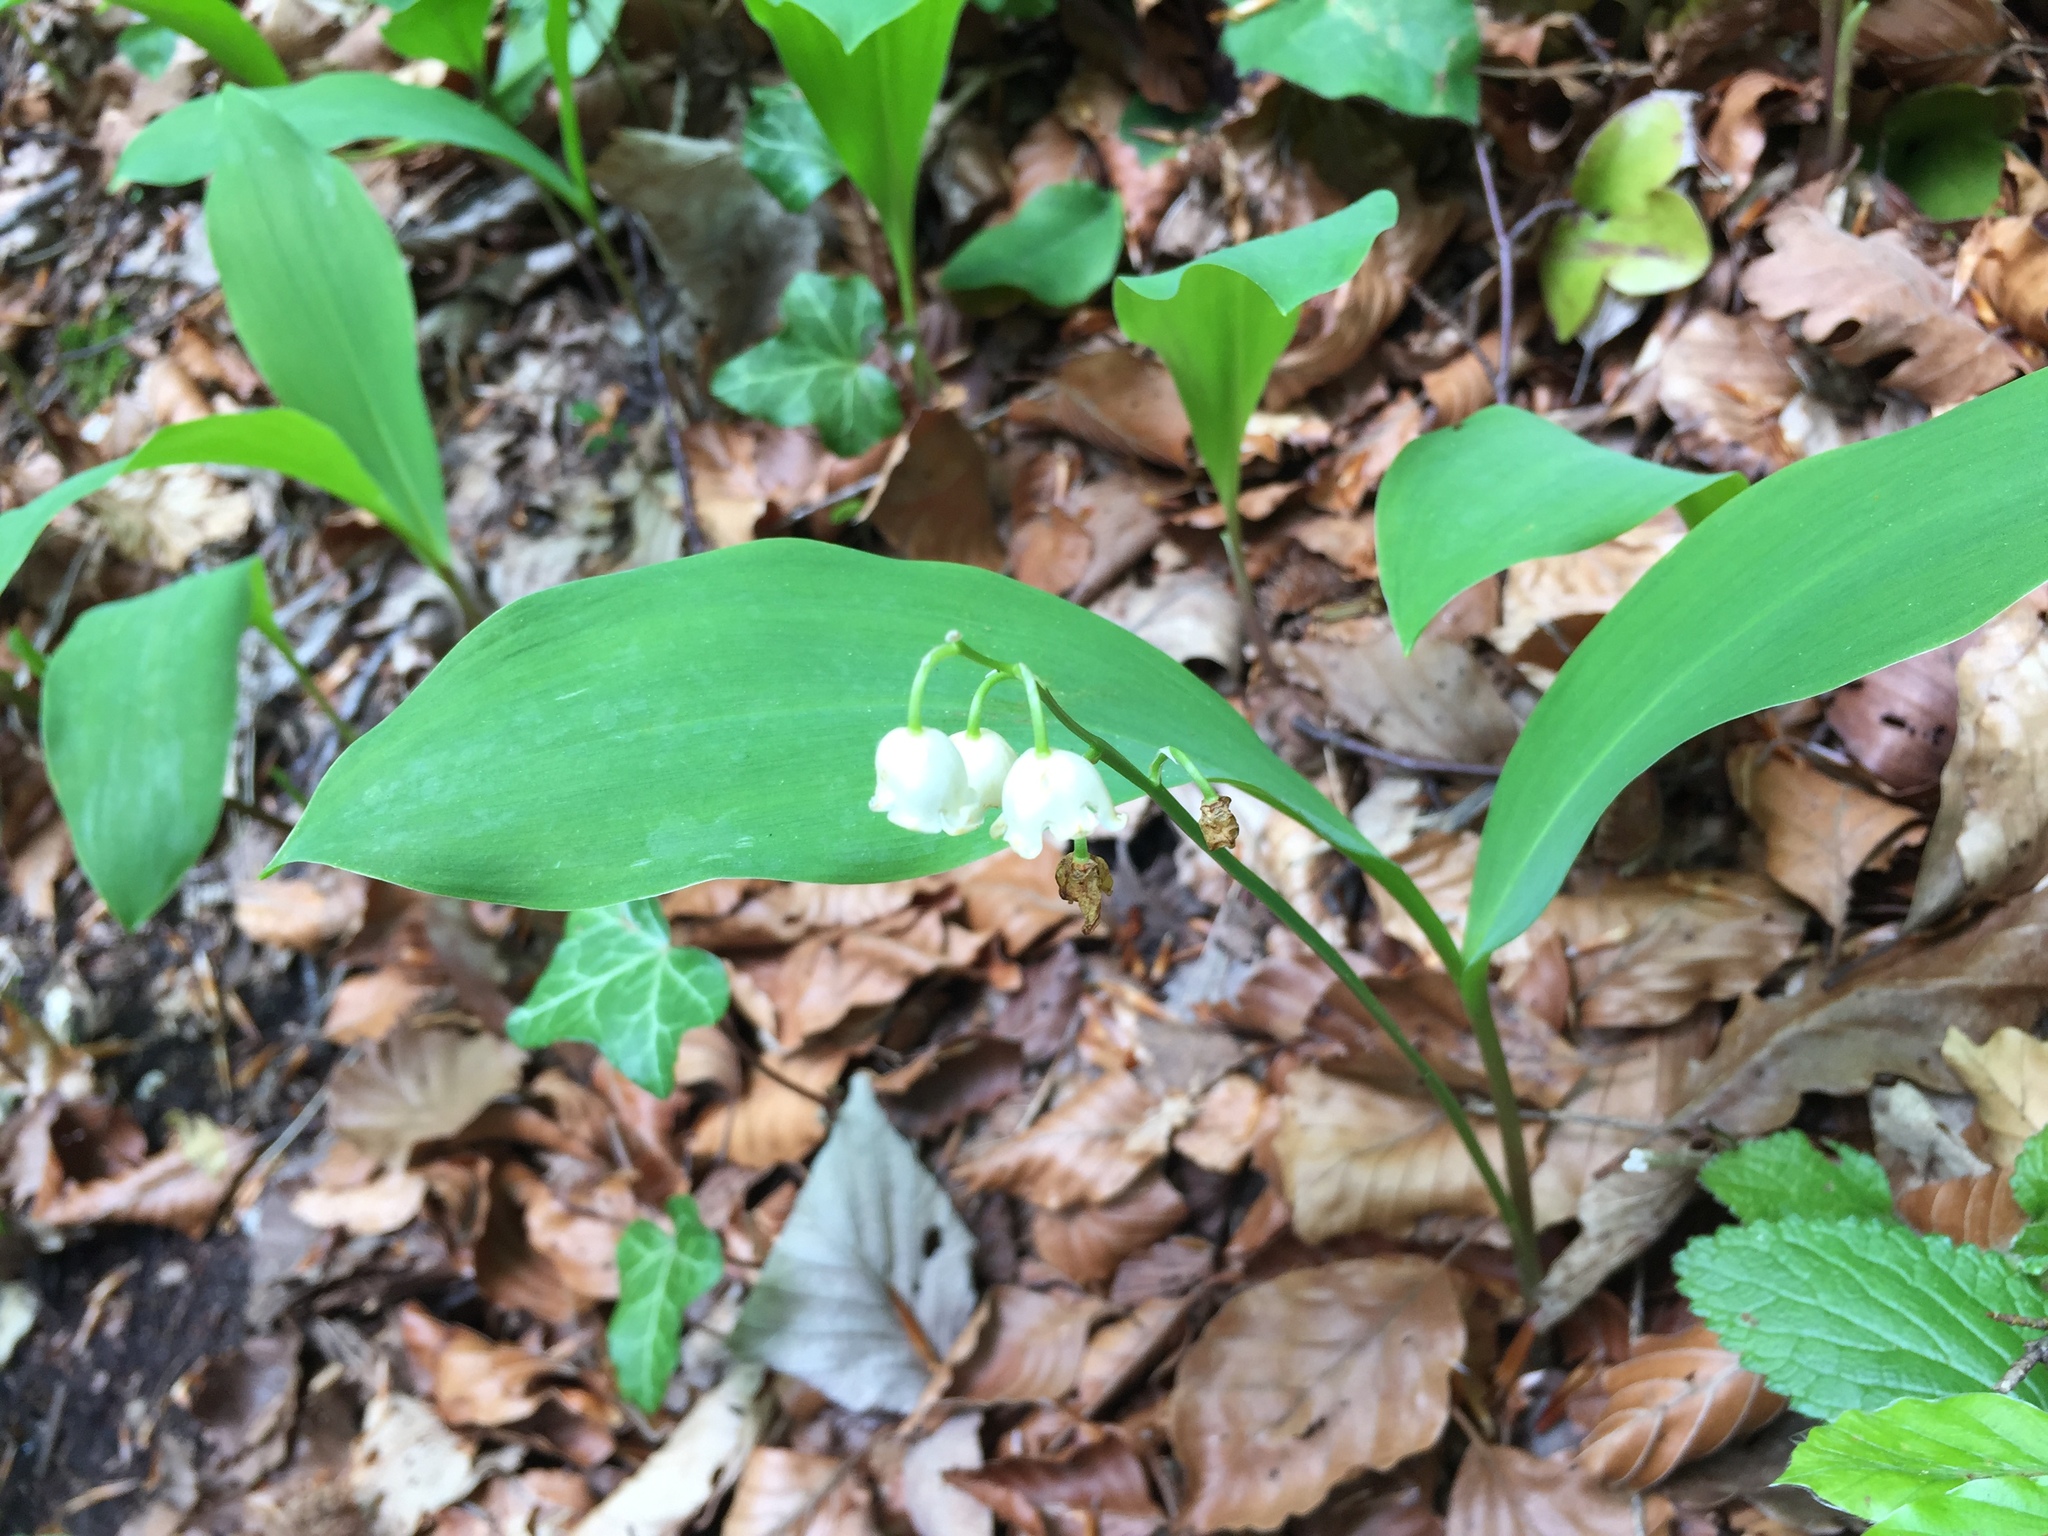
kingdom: Plantae
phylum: Tracheophyta
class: Liliopsida
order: Asparagales
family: Asparagaceae
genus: Convallaria
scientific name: Convallaria majalis
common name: Lily-of-the-valley
